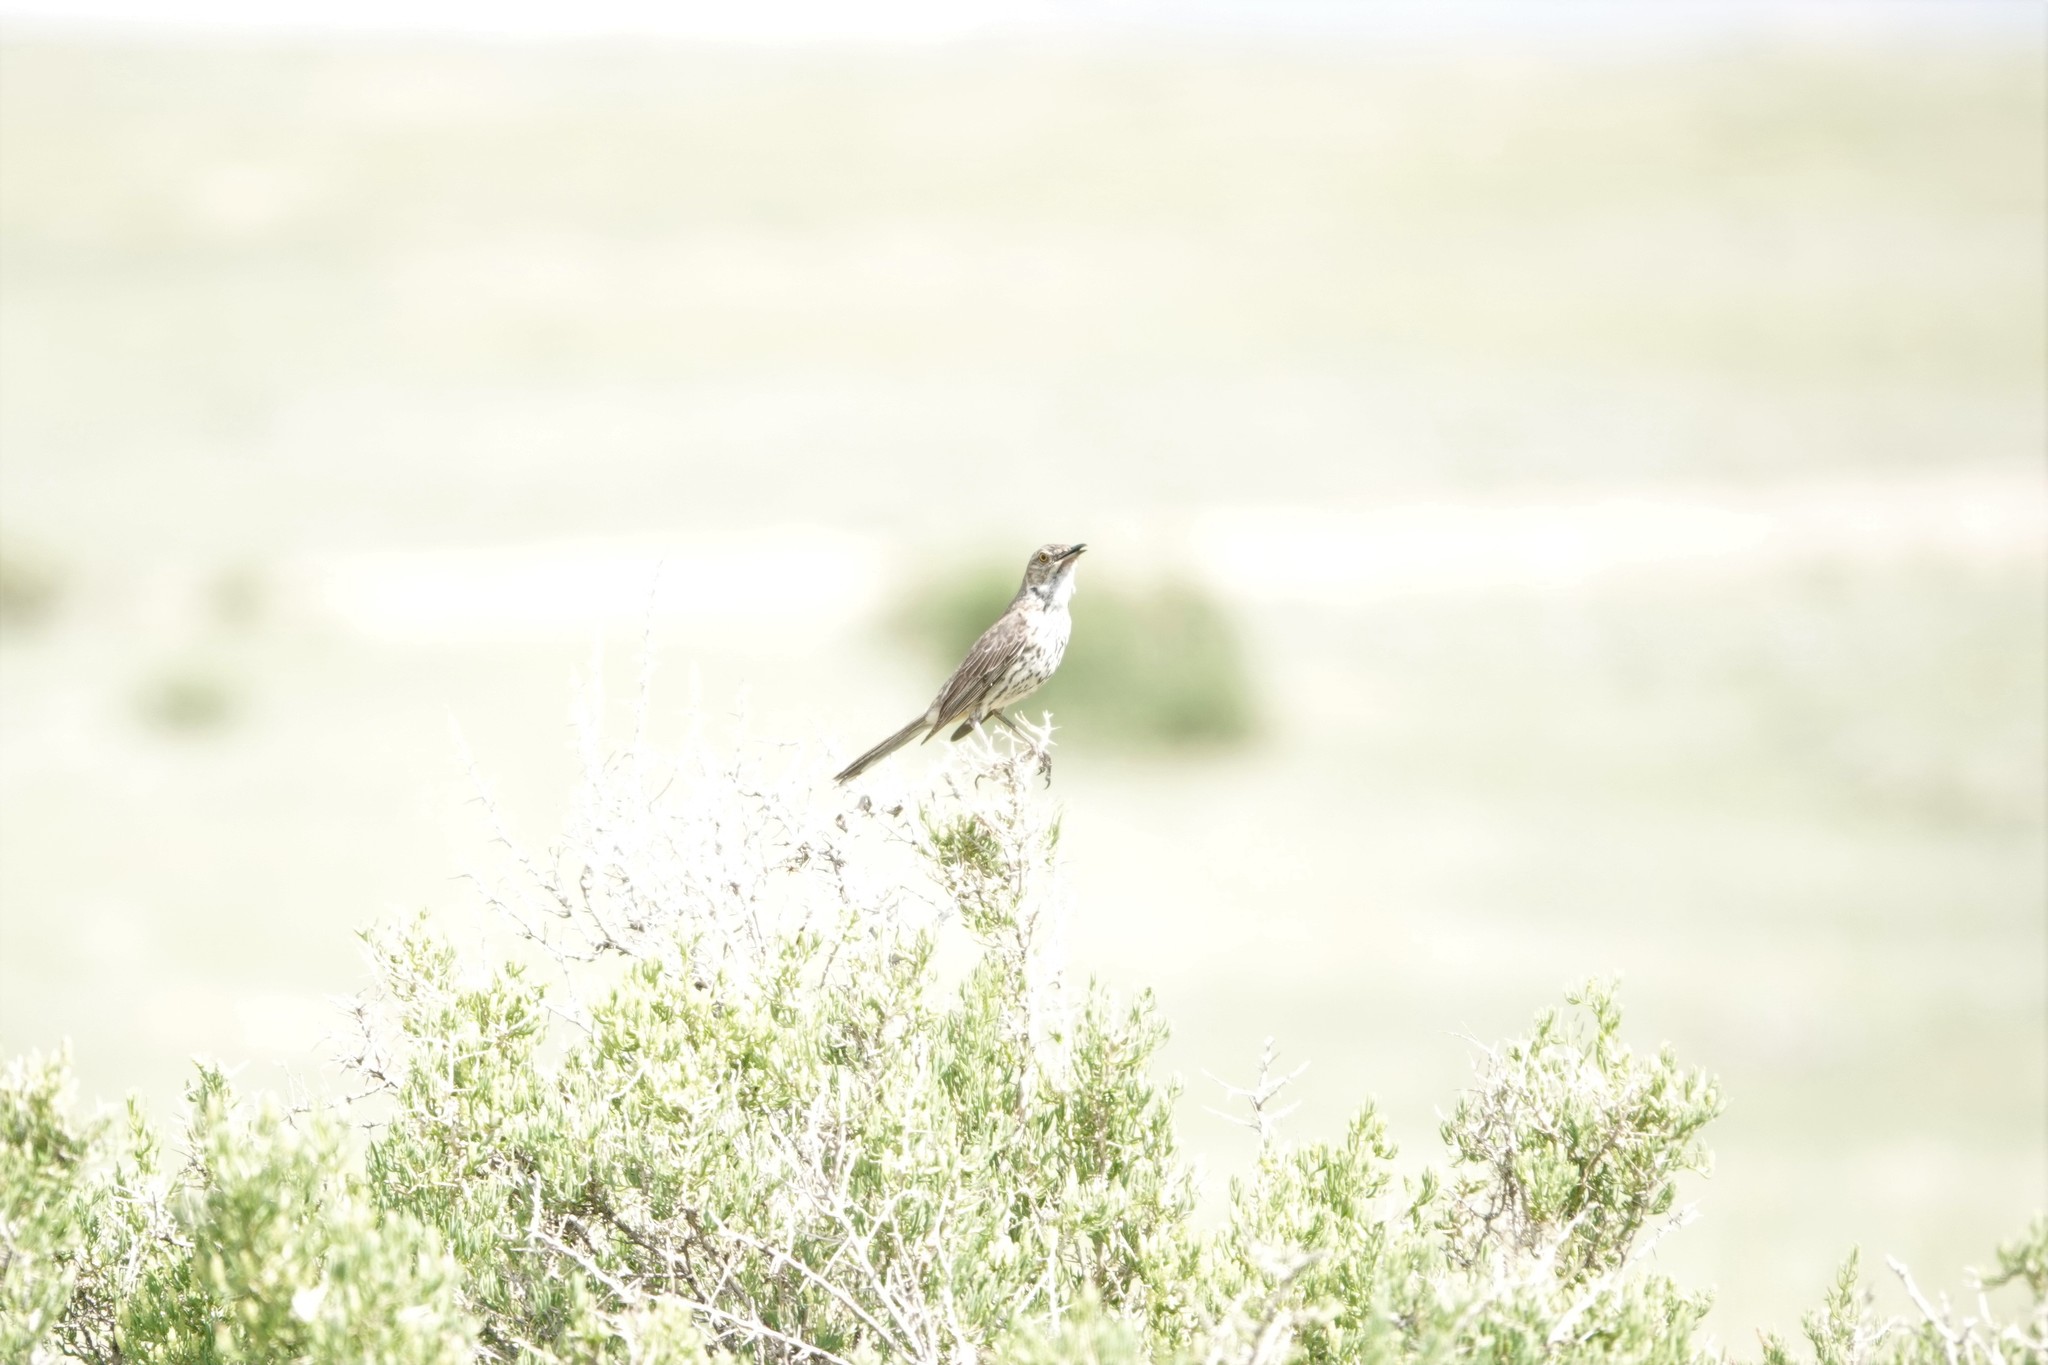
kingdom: Animalia
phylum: Chordata
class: Aves
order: Passeriformes
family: Mimidae
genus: Oreoscoptes
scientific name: Oreoscoptes montanus
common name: Sage thrasher
